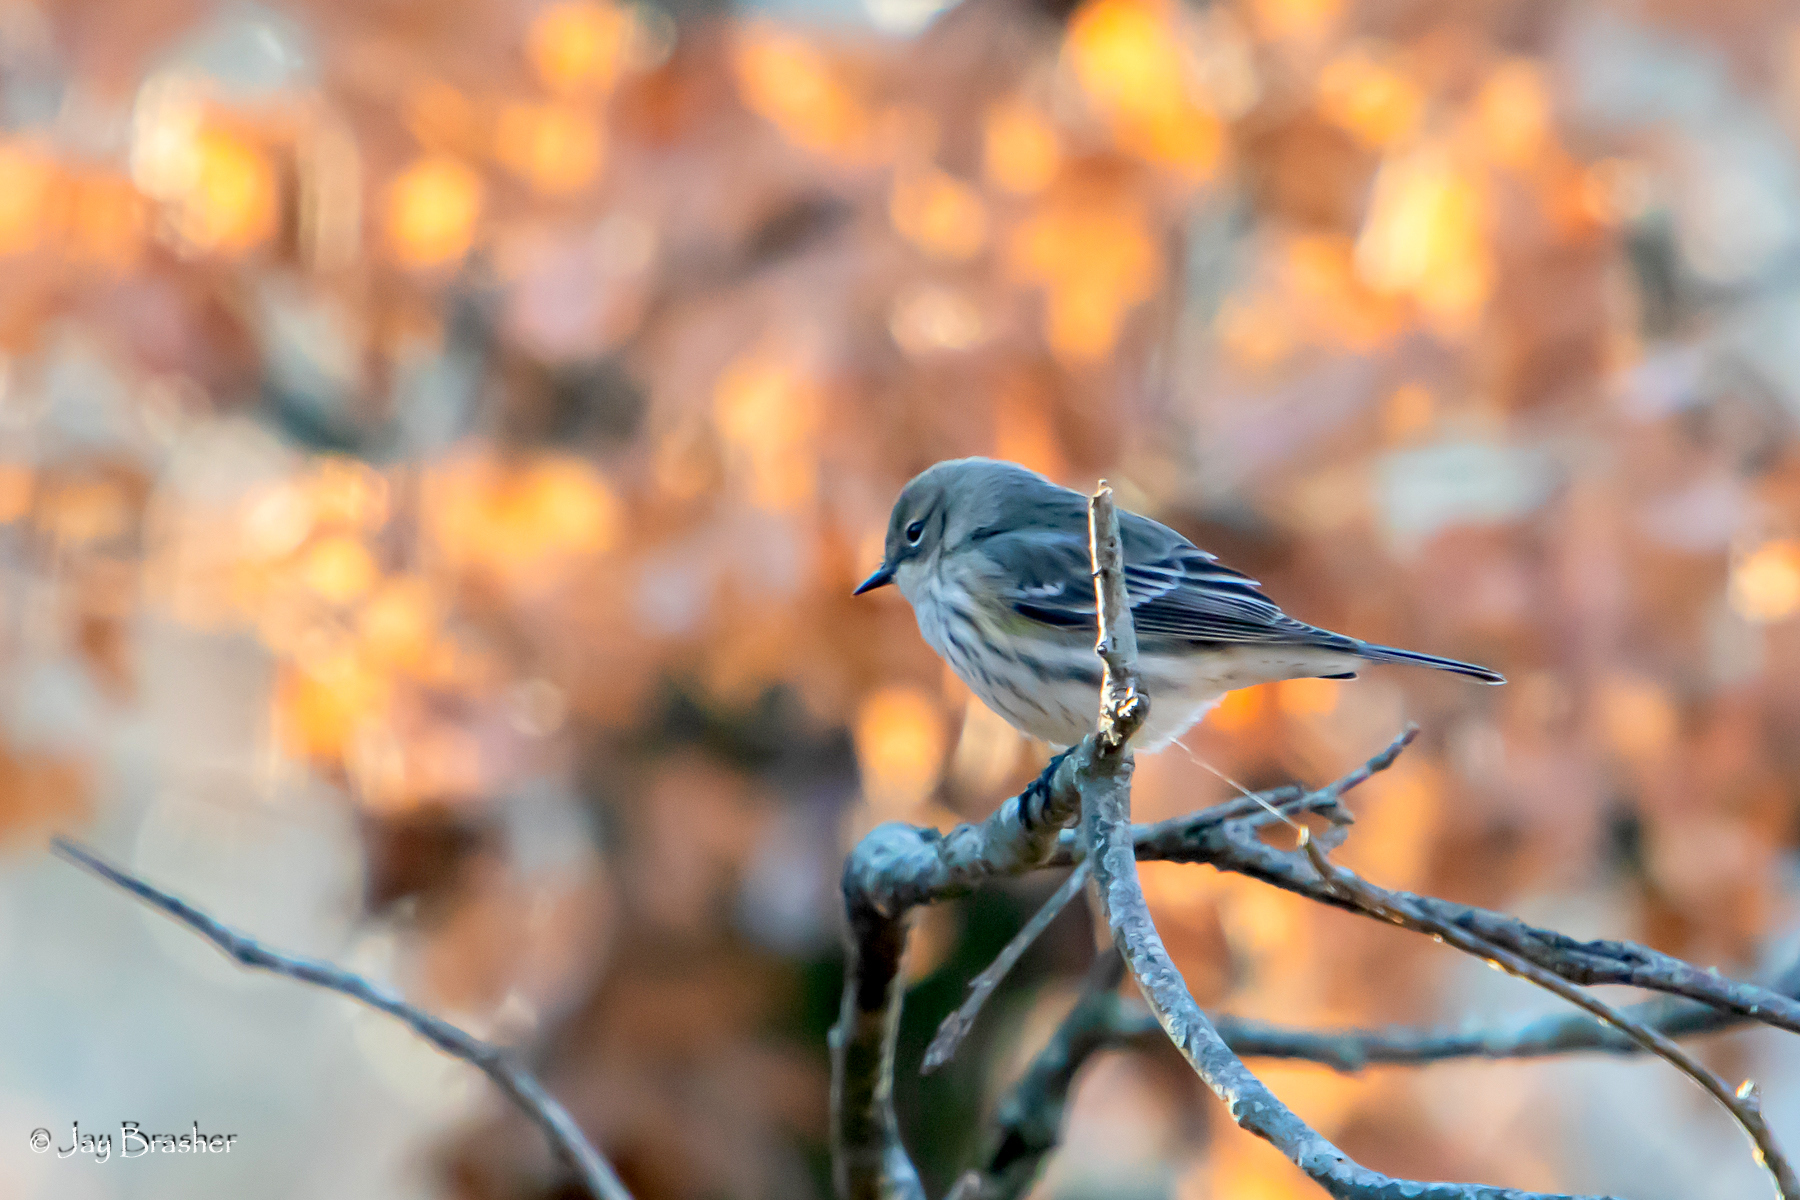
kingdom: Animalia
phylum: Chordata
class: Aves
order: Passeriformes
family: Parulidae
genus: Setophaga
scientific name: Setophaga coronata
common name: Myrtle warbler
